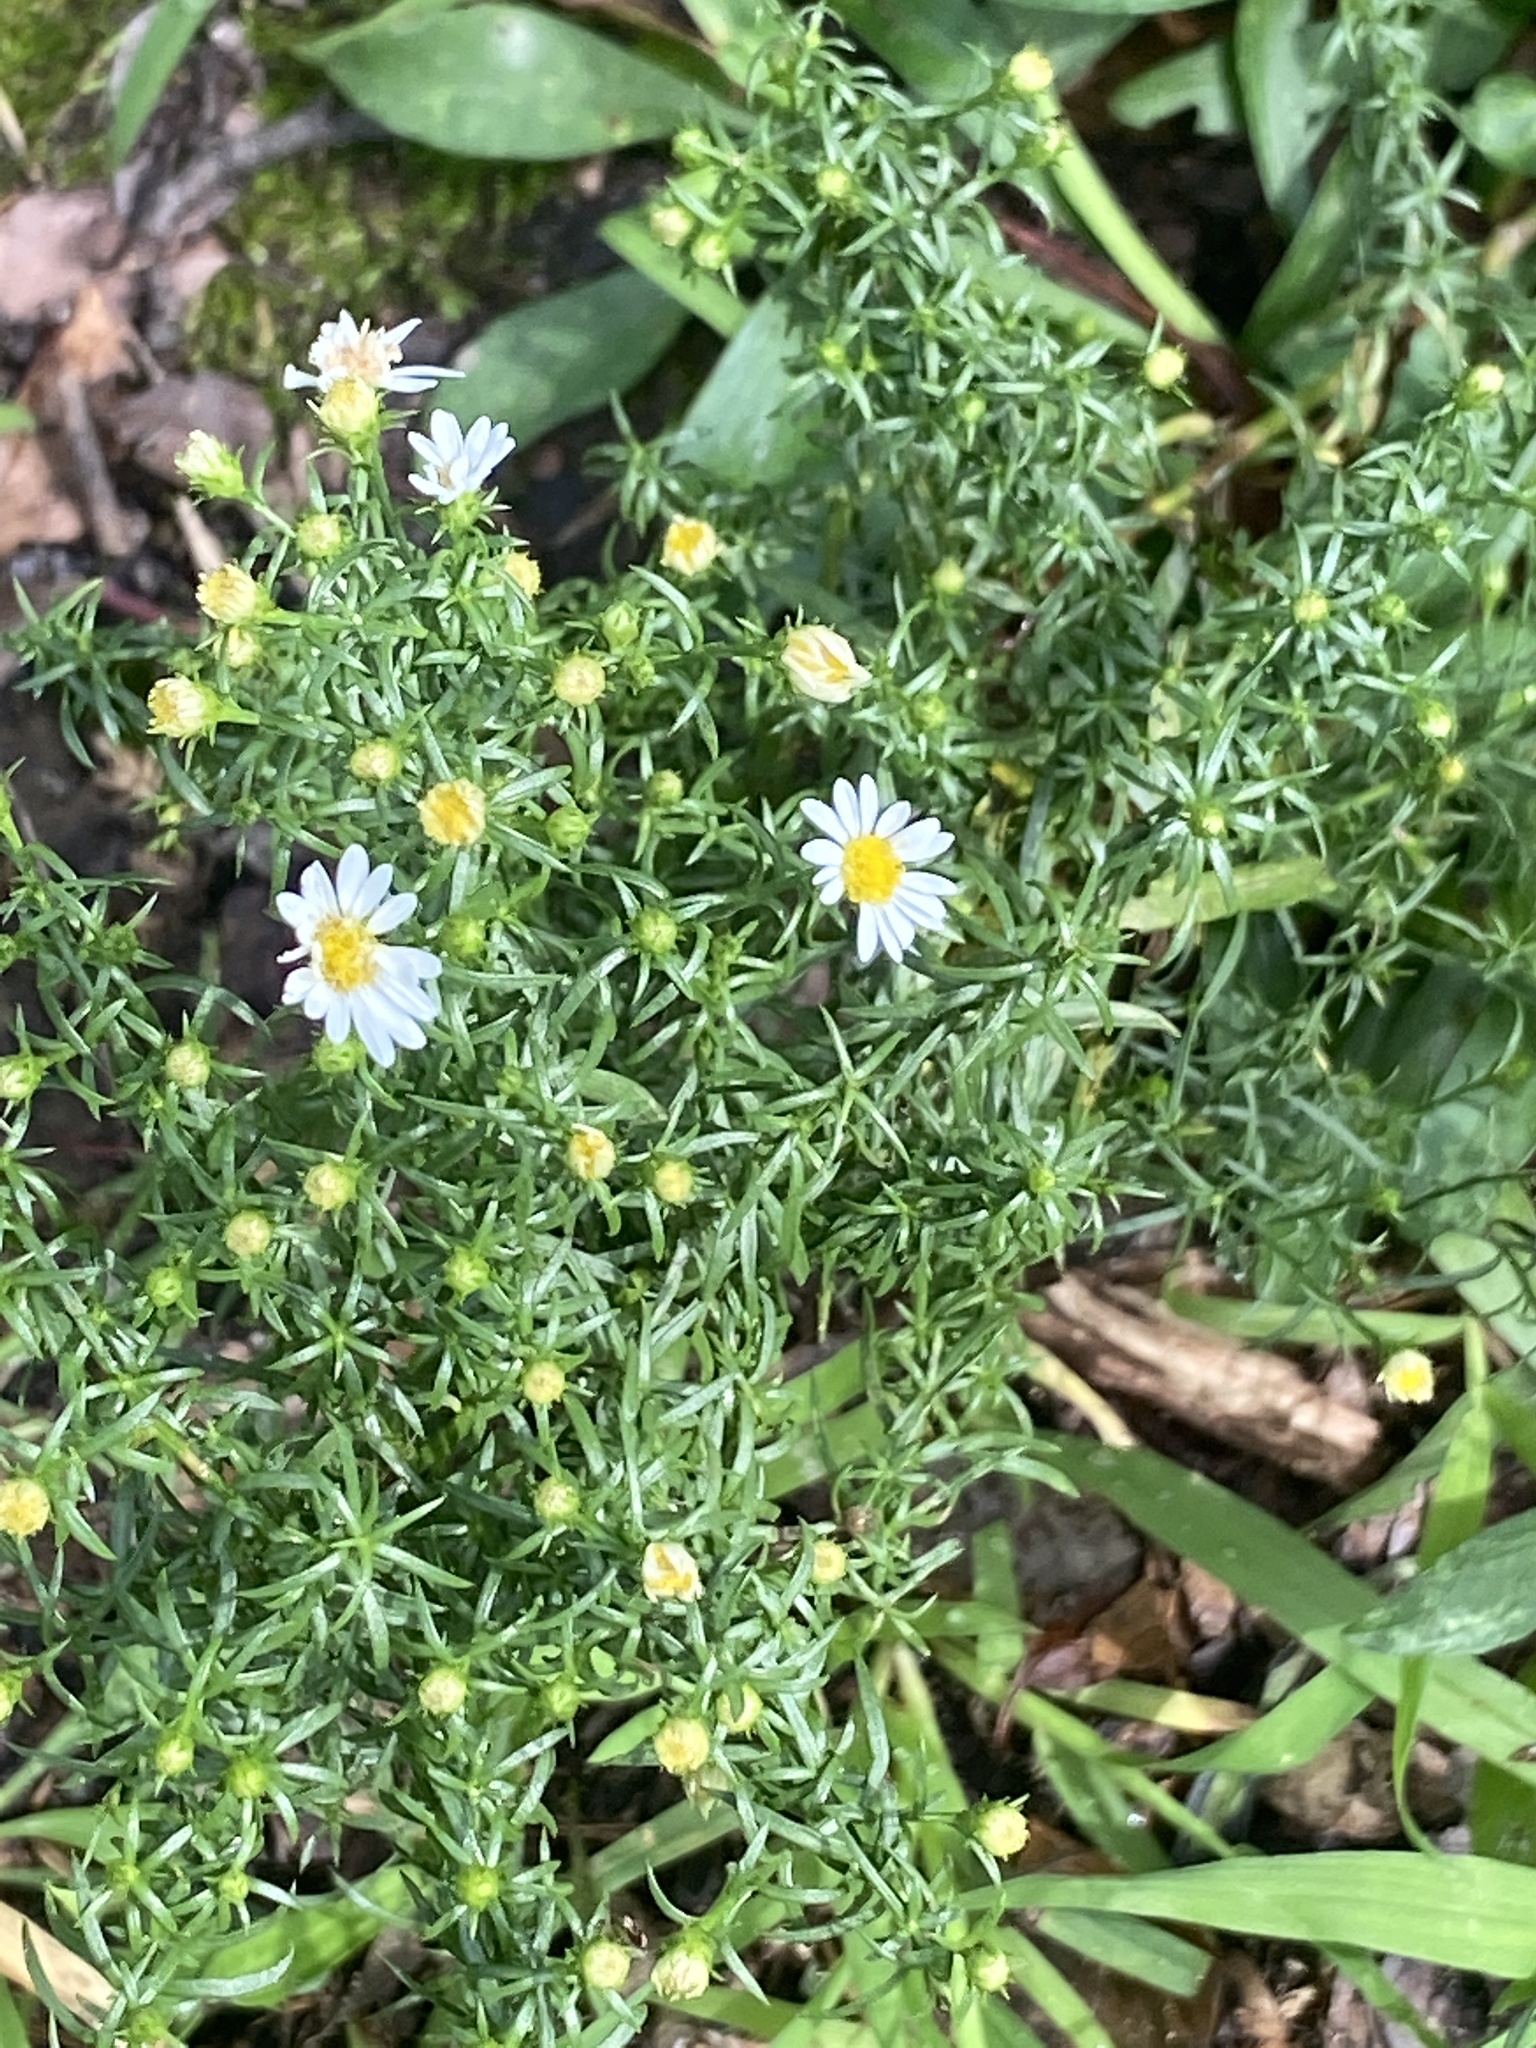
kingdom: Plantae
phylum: Tracheophyta
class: Magnoliopsida
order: Asterales
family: Asteraceae
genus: Symphyotrichum
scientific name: Symphyotrichum dumosum
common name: Bushy aster
